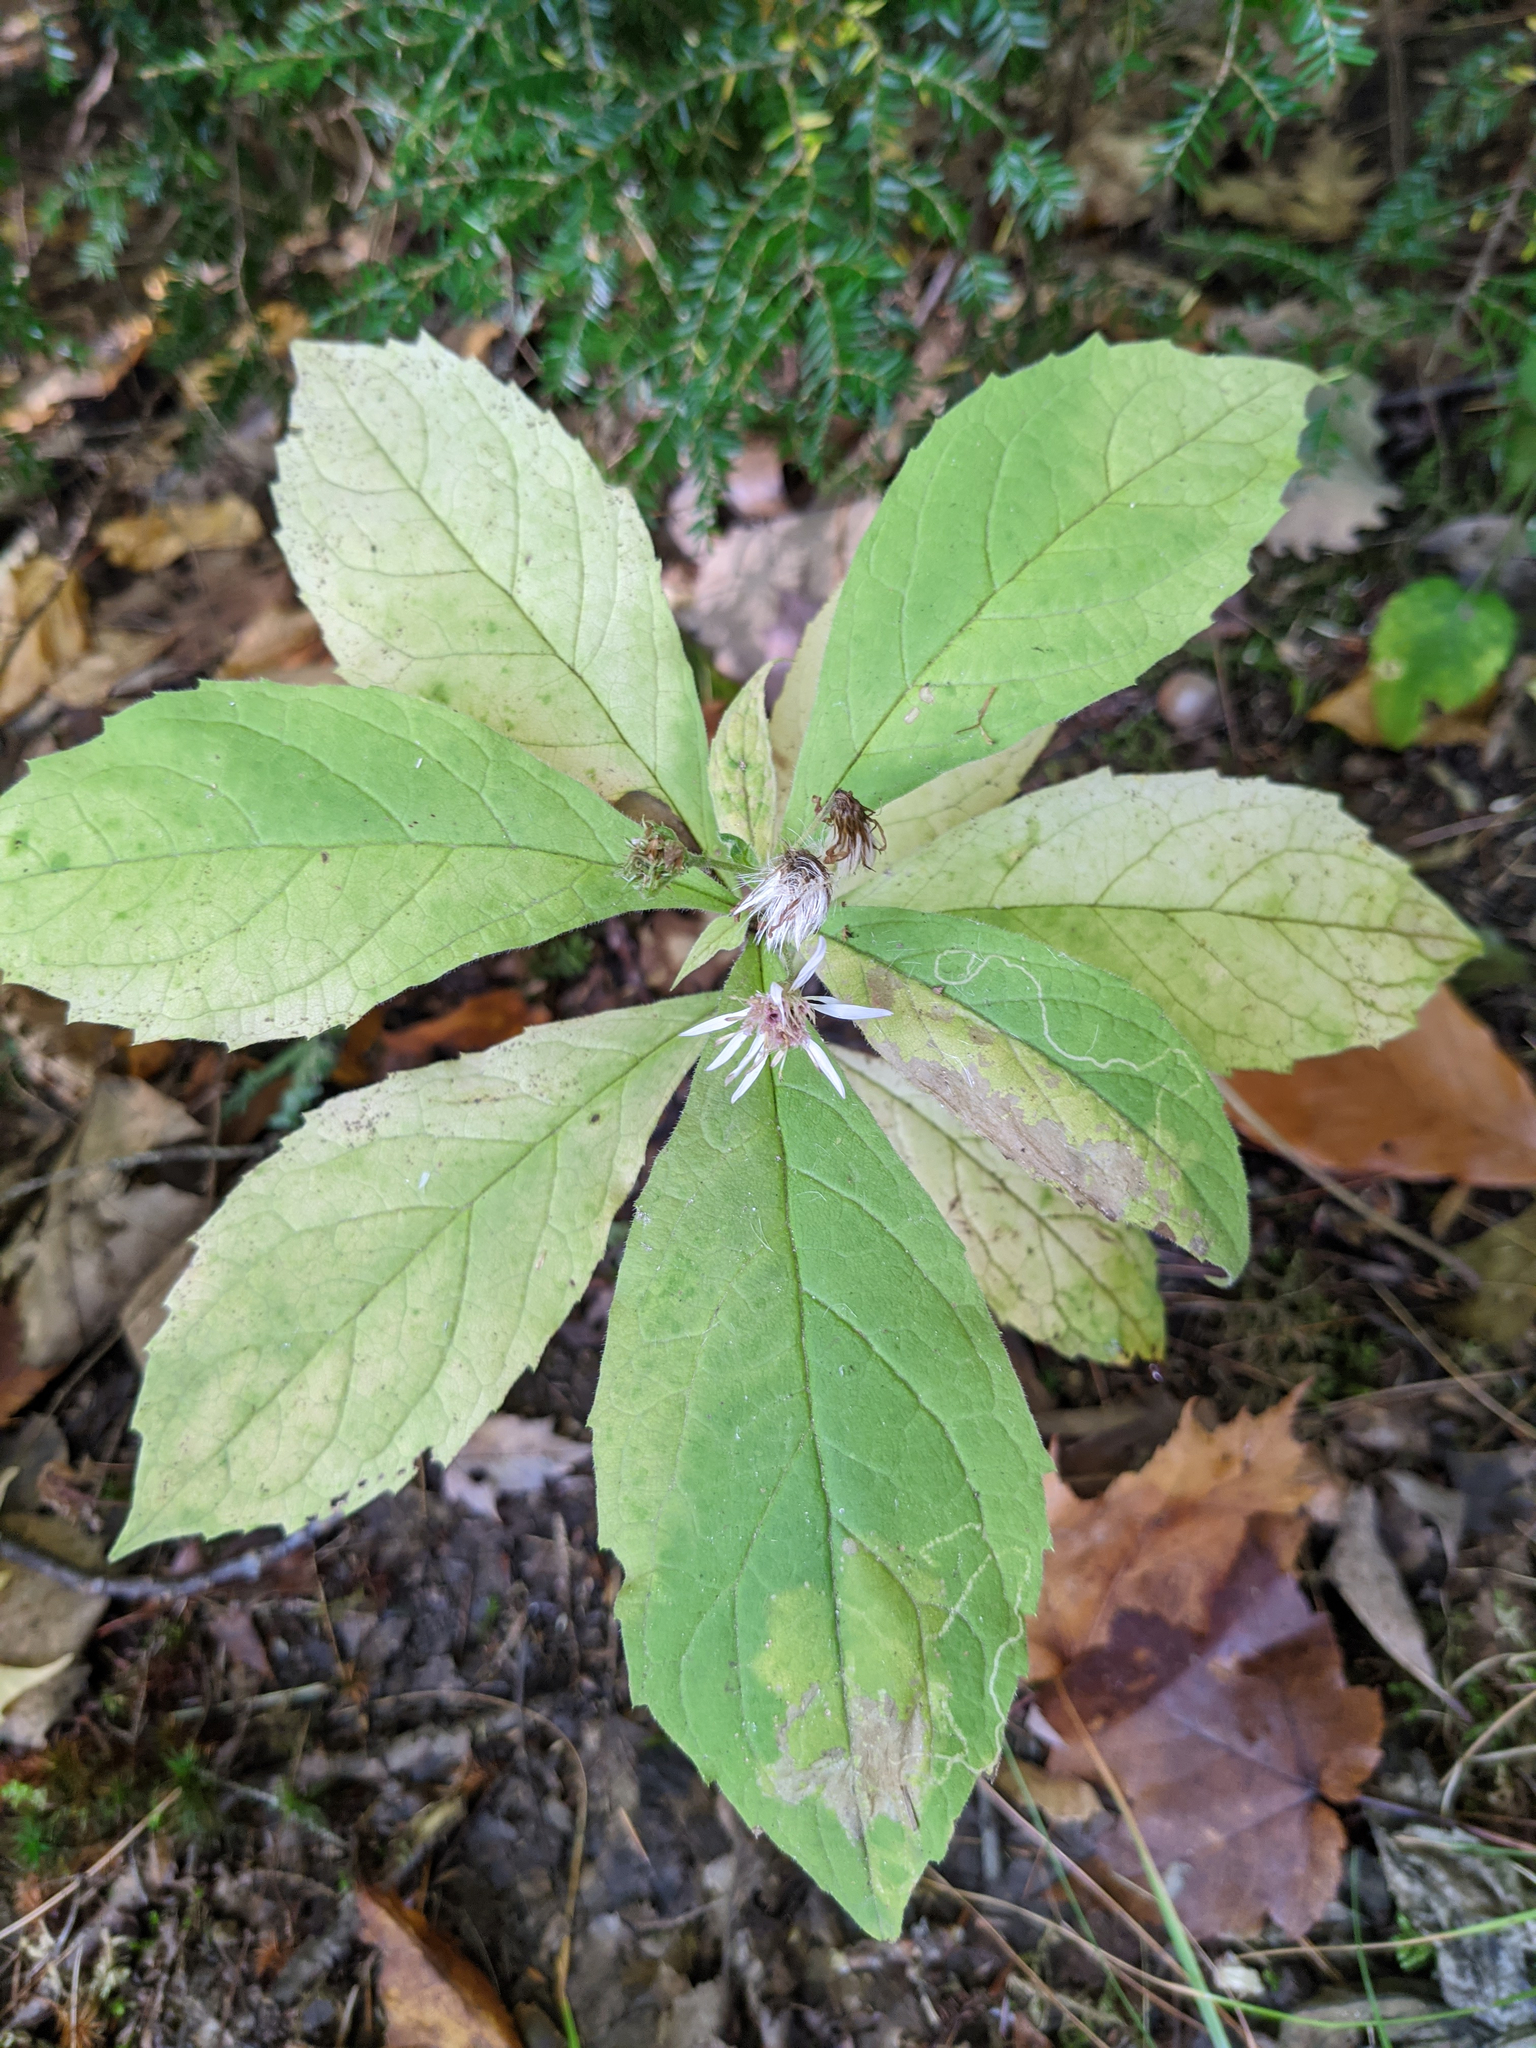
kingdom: Plantae
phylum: Tracheophyta
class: Magnoliopsida
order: Asterales
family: Asteraceae
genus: Oclemena
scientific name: Oclemena acuminata
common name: Mountain aster
